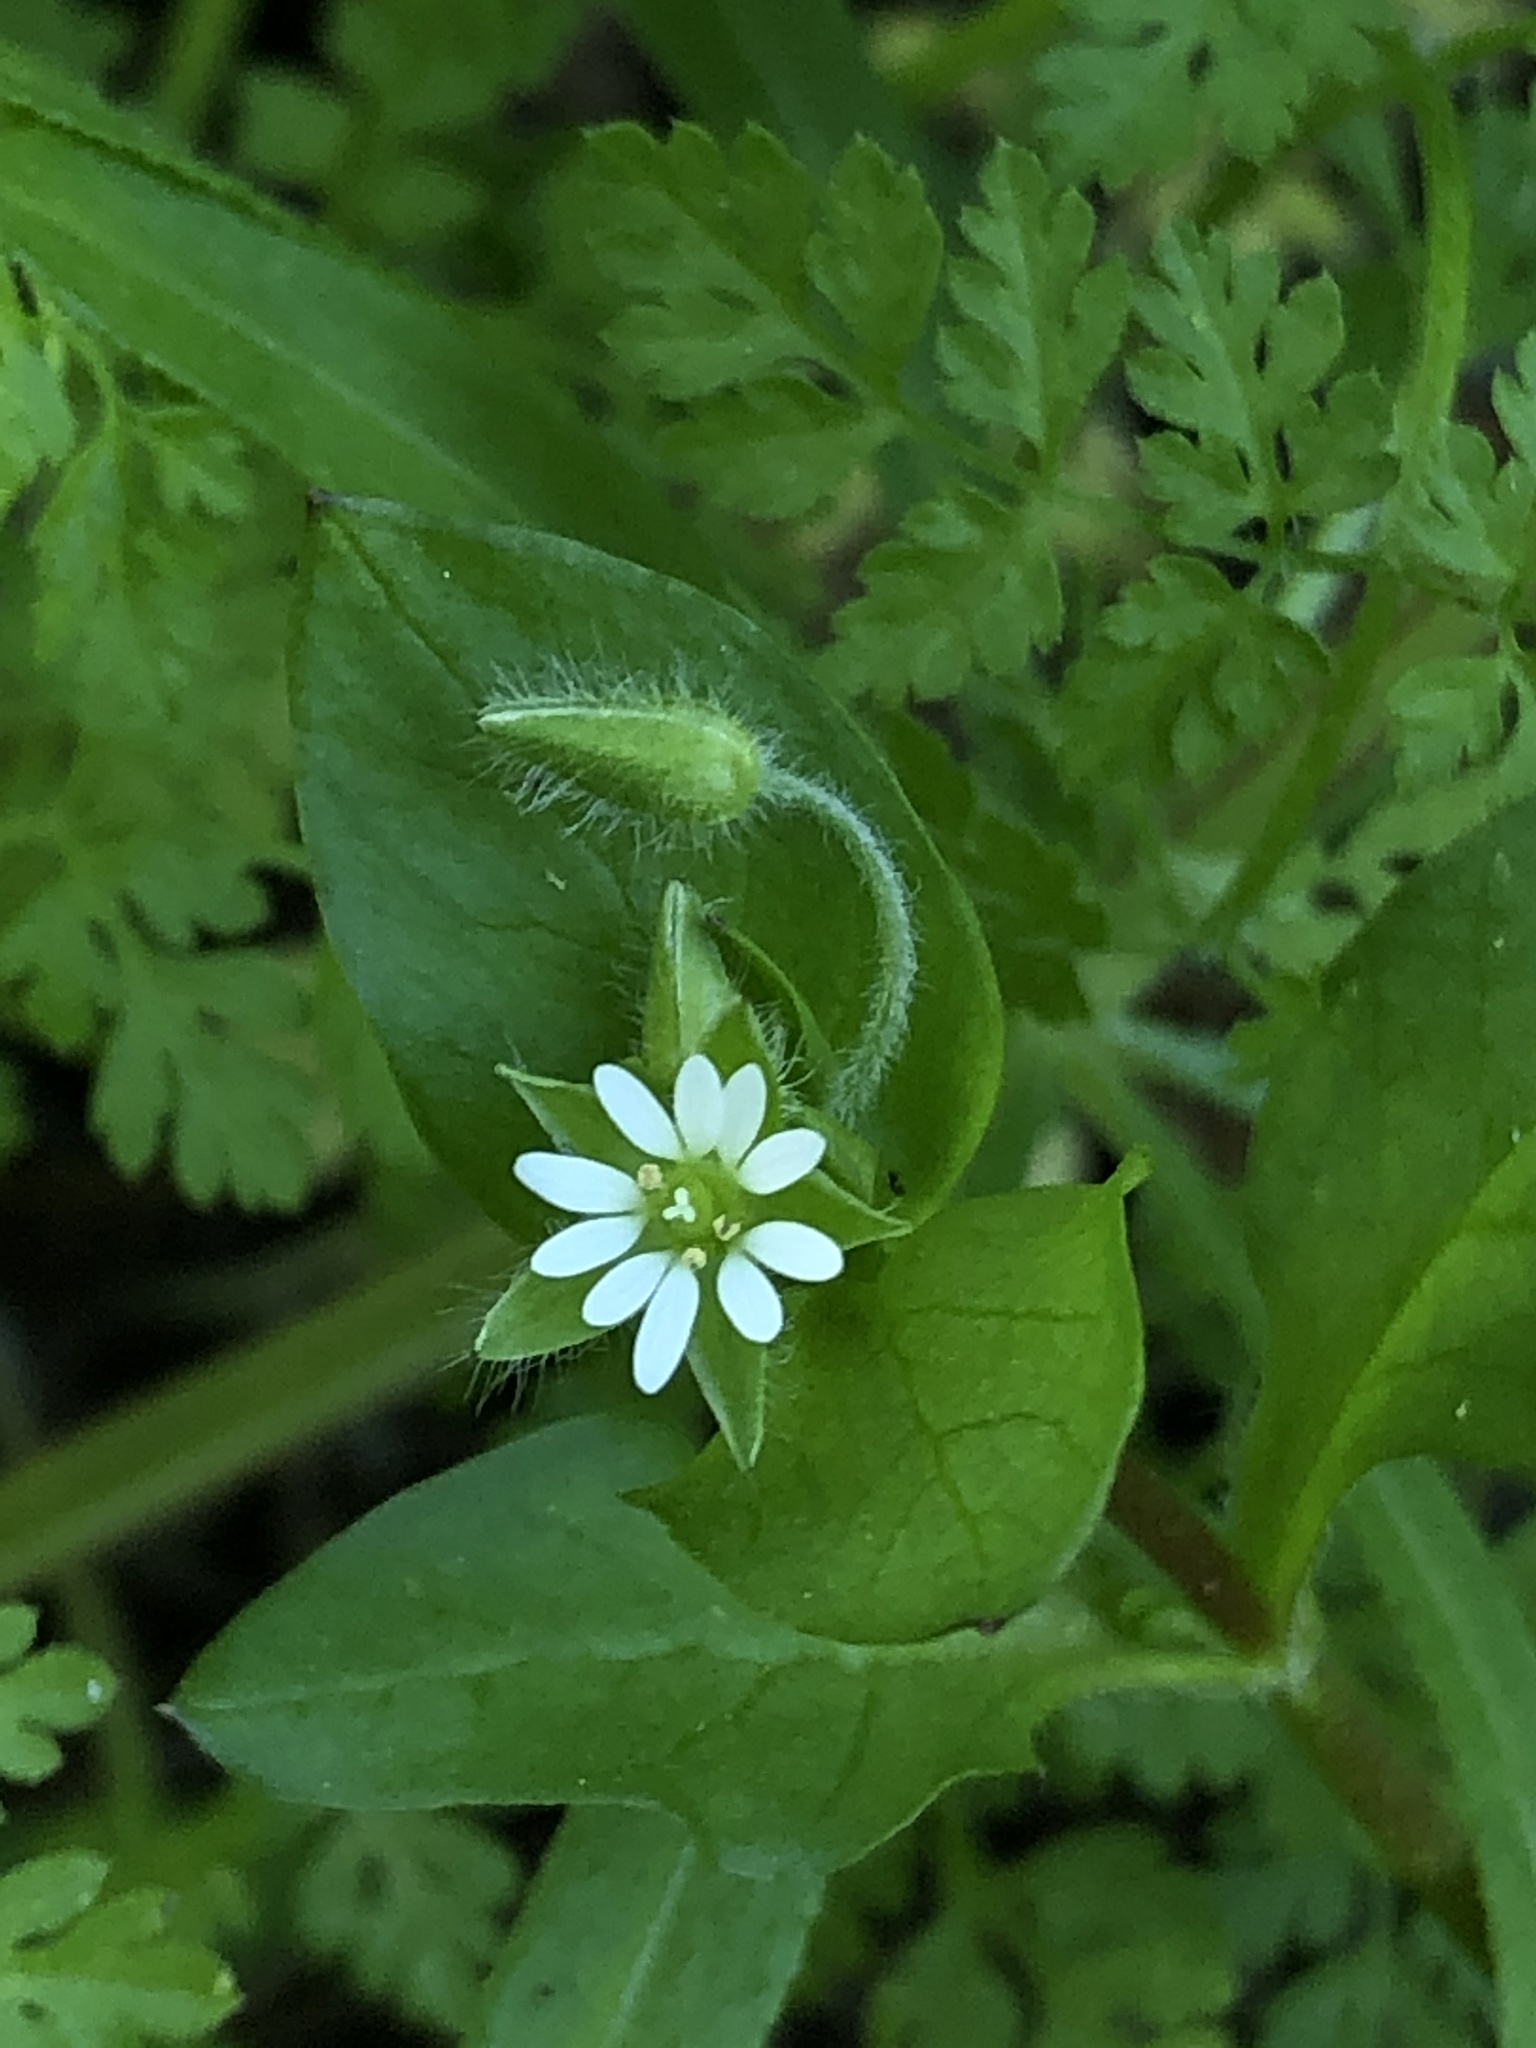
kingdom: Plantae
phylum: Tracheophyta
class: Magnoliopsida
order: Caryophyllales
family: Caryophyllaceae
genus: Stellaria
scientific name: Stellaria media
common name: Common chickweed
